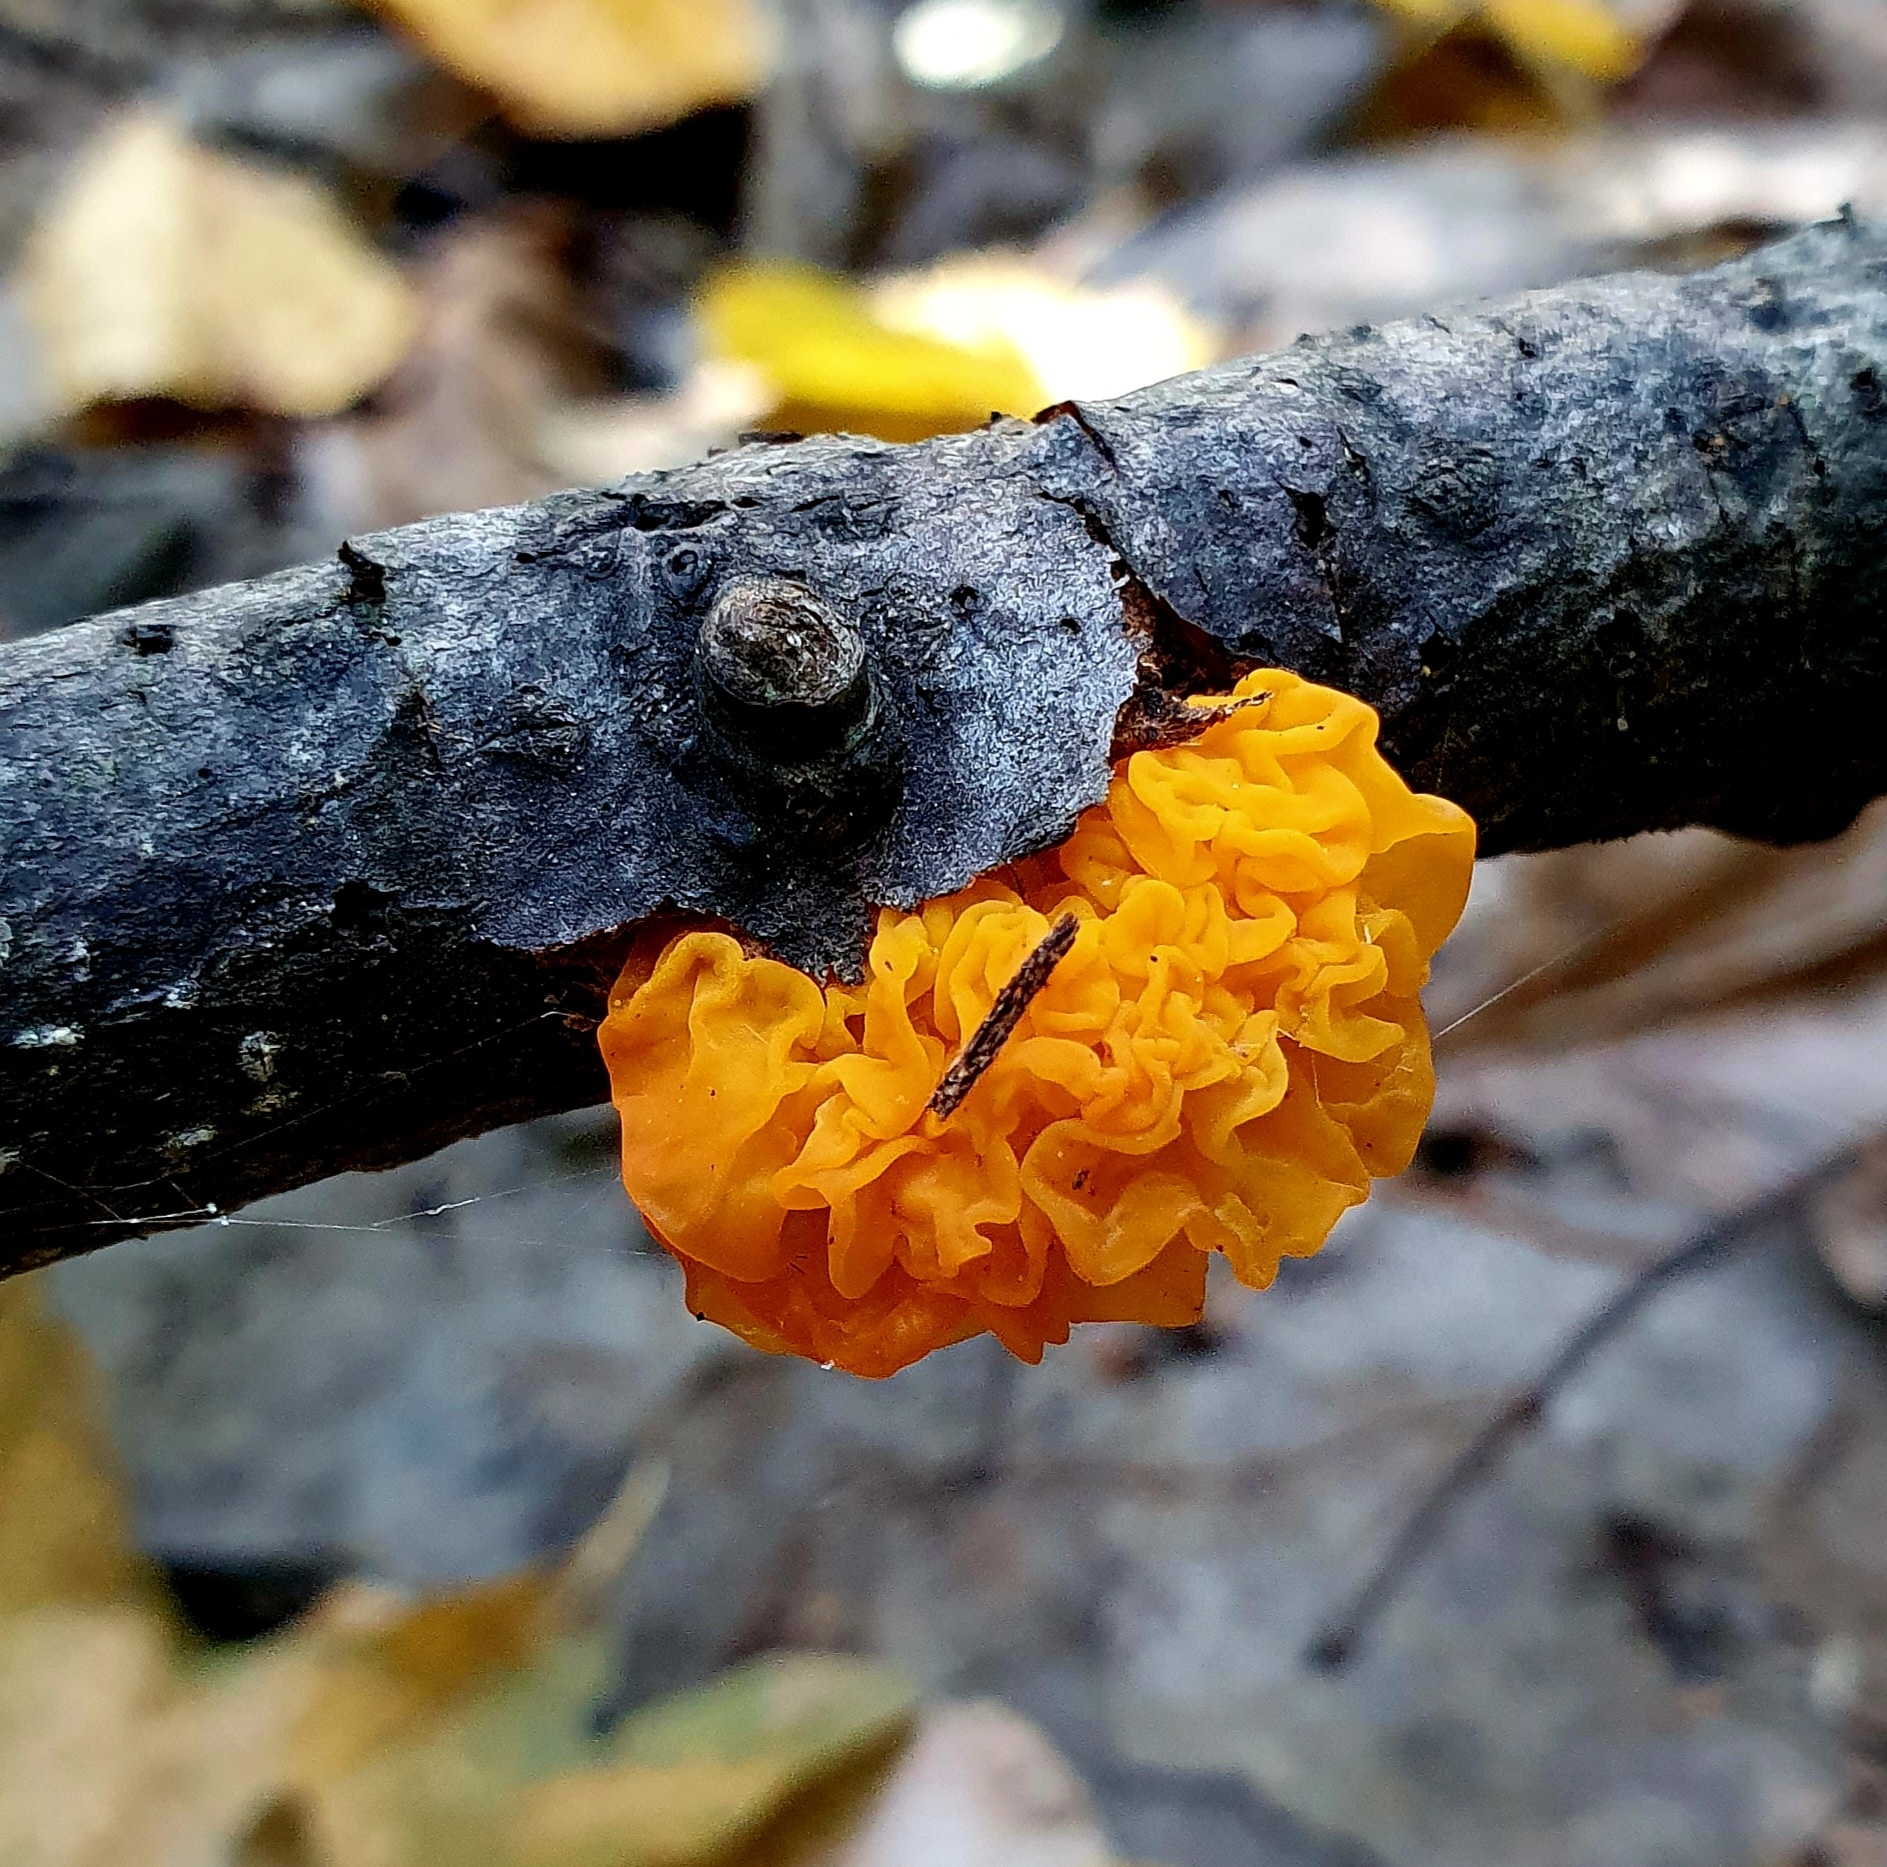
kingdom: Fungi
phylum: Basidiomycota
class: Tremellomycetes
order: Tremellales
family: Tremellaceae
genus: Tremella
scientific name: Tremella mesenterica
